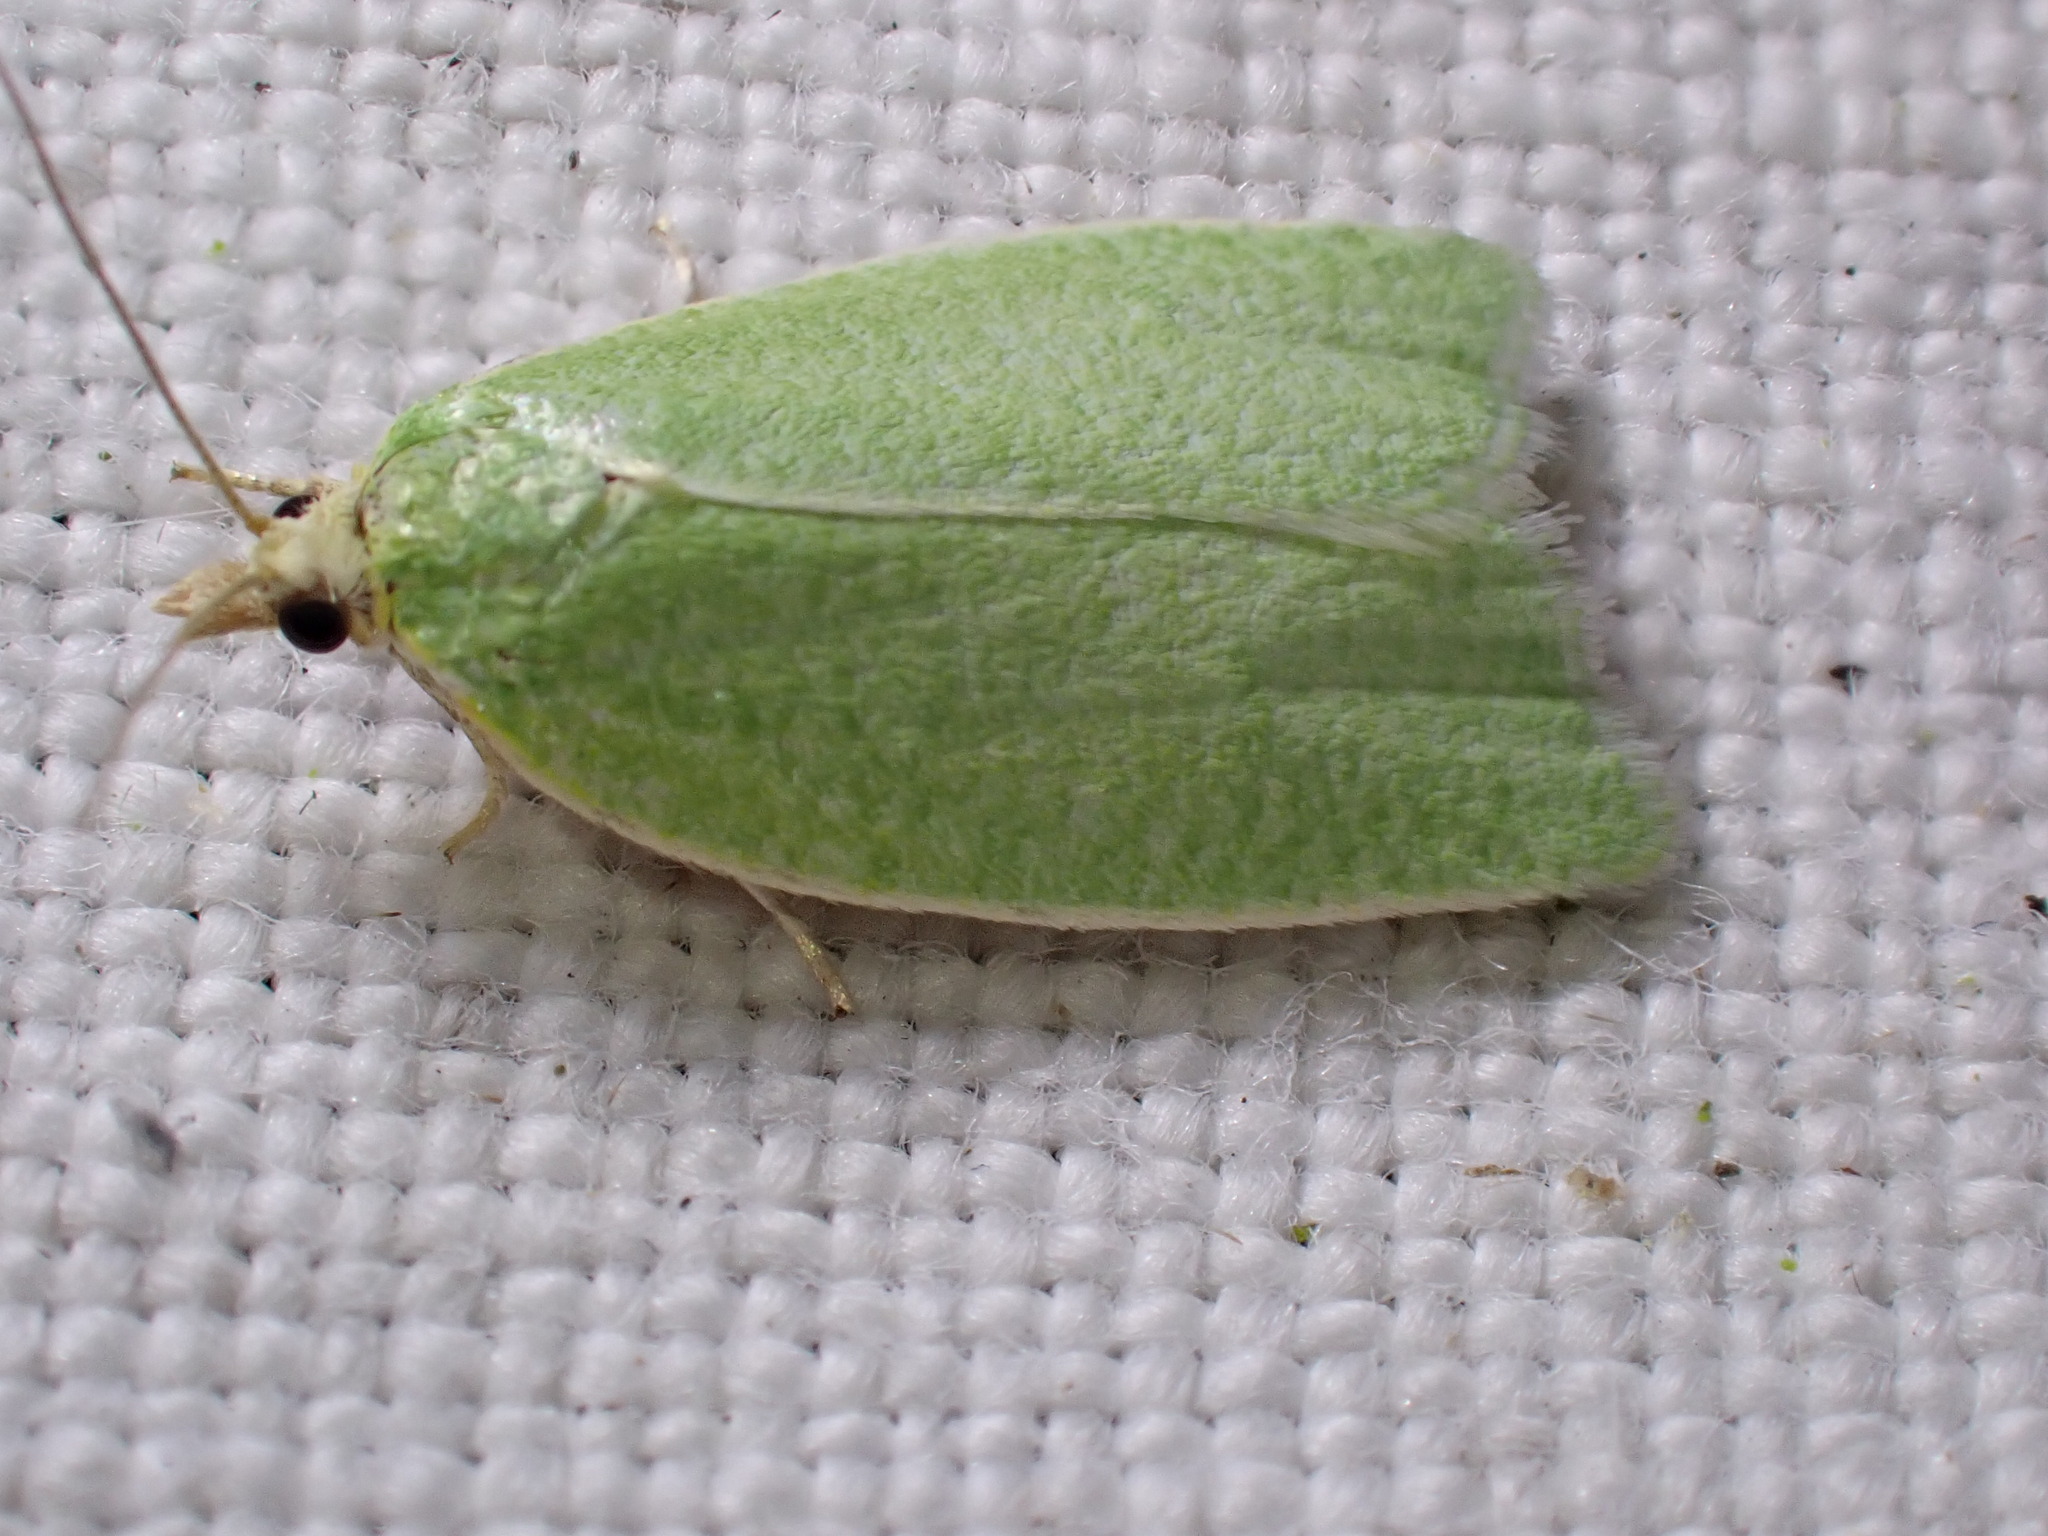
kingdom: Animalia
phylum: Arthropoda
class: Insecta
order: Lepidoptera
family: Tortricidae
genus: Tortrix
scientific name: Tortrix viridana
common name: Green oak tortrix
